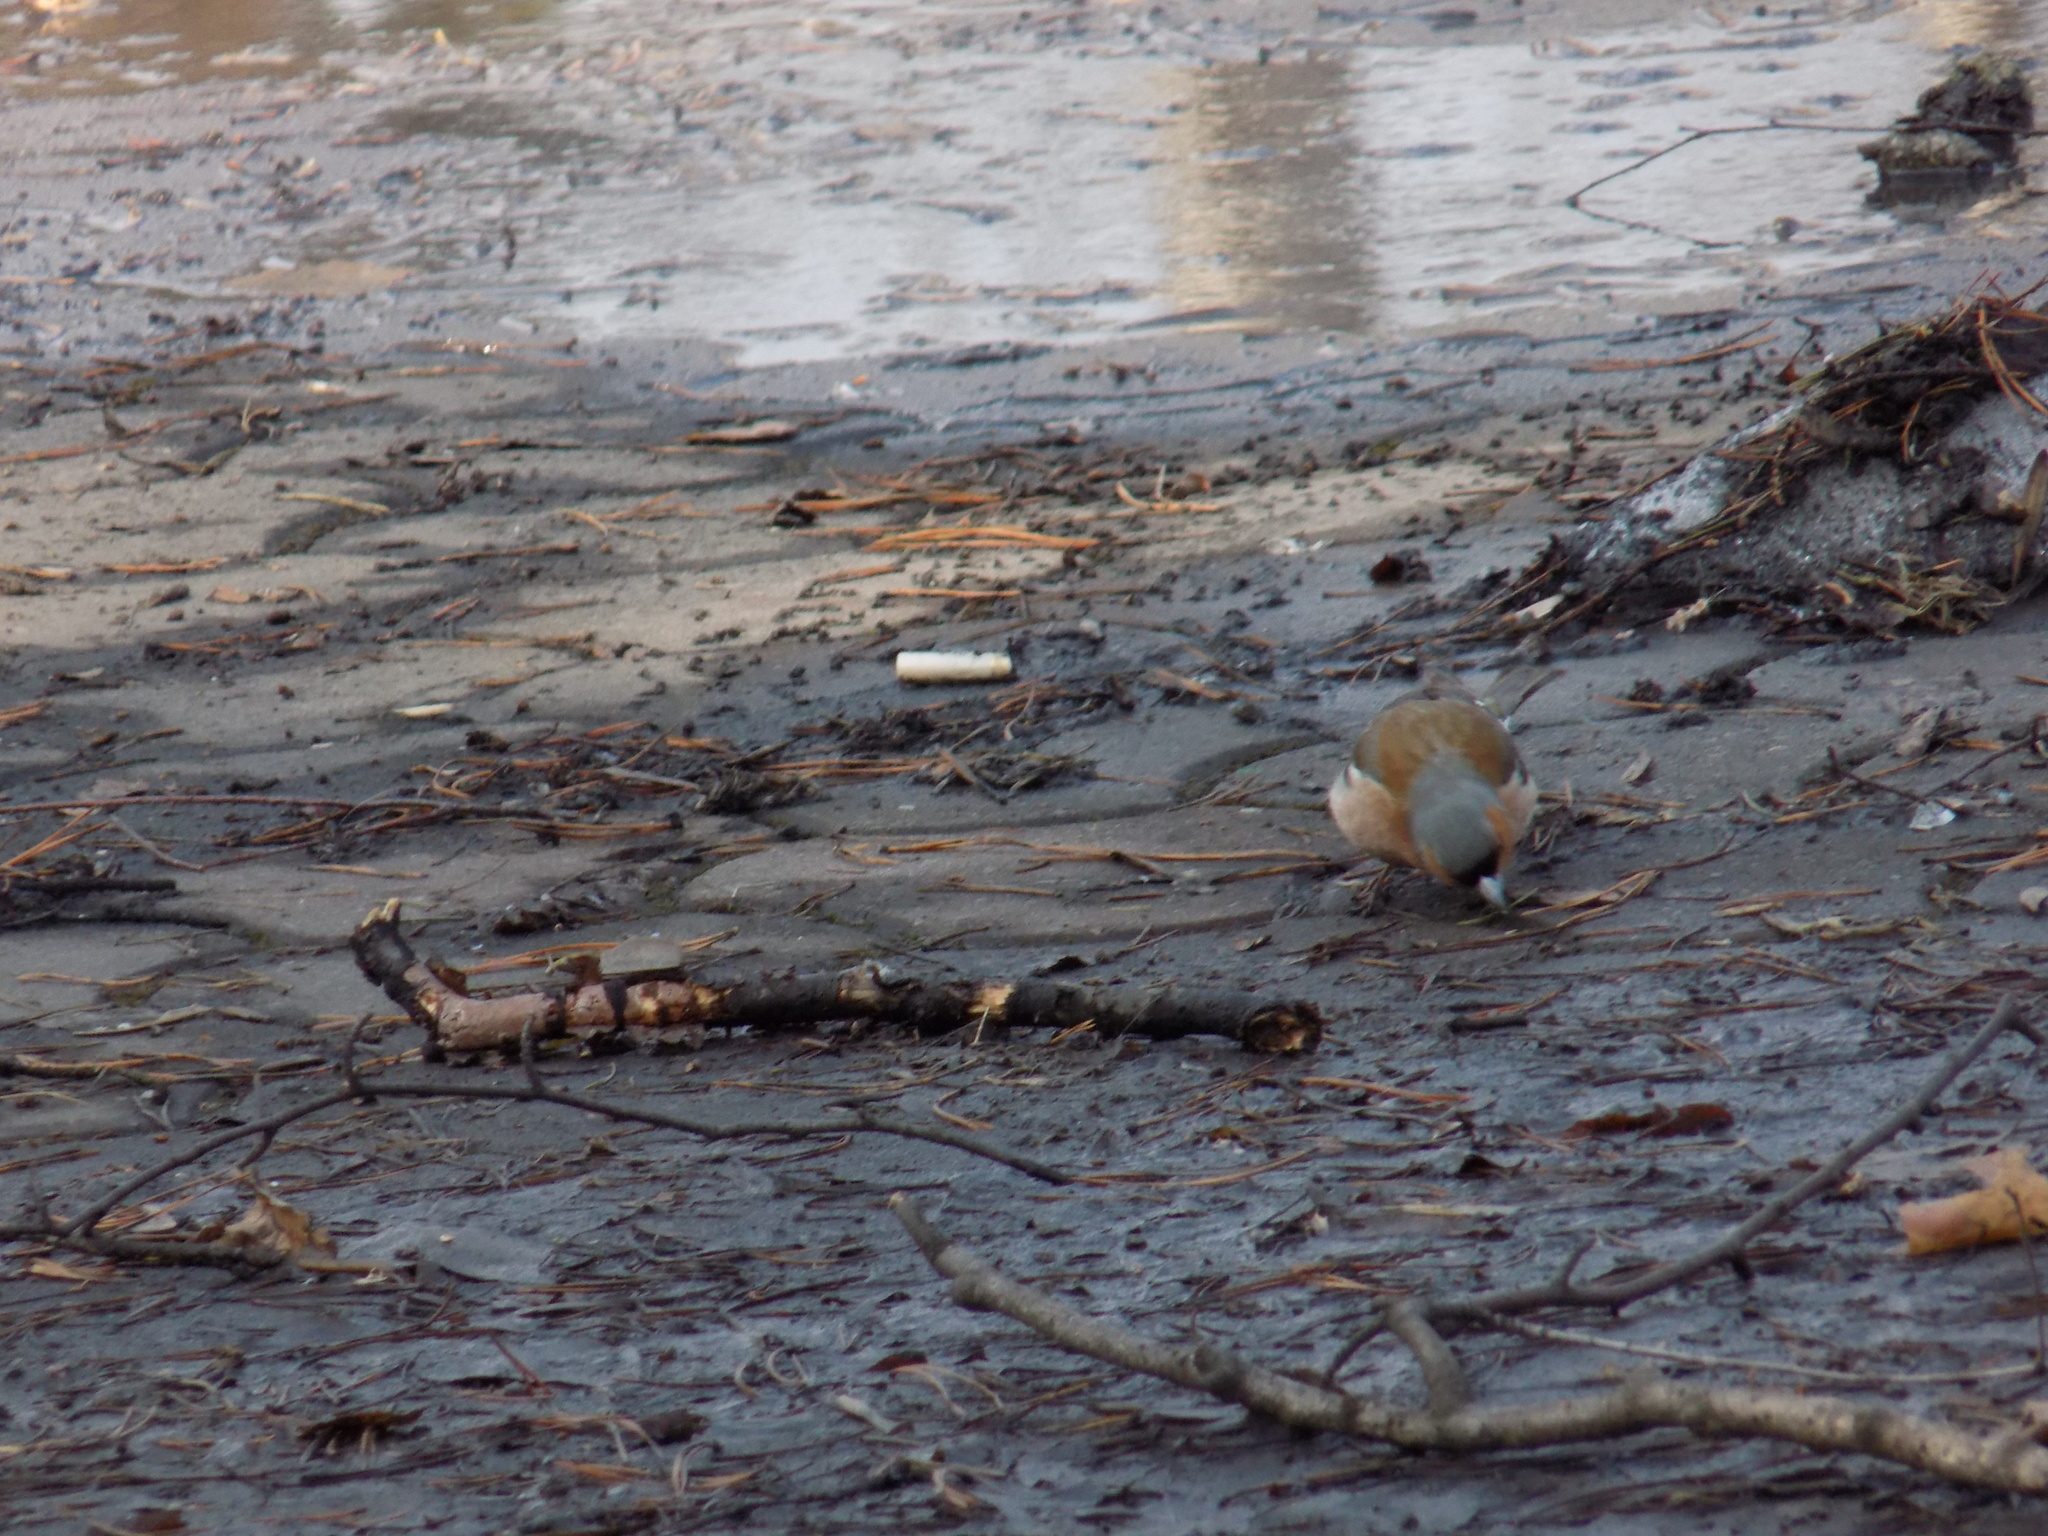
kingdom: Animalia
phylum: Chordata
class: Aves
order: Passeriformes
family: Fringillidae
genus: Fringilla
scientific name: Fringilla coelebs
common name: Common chaffinch
